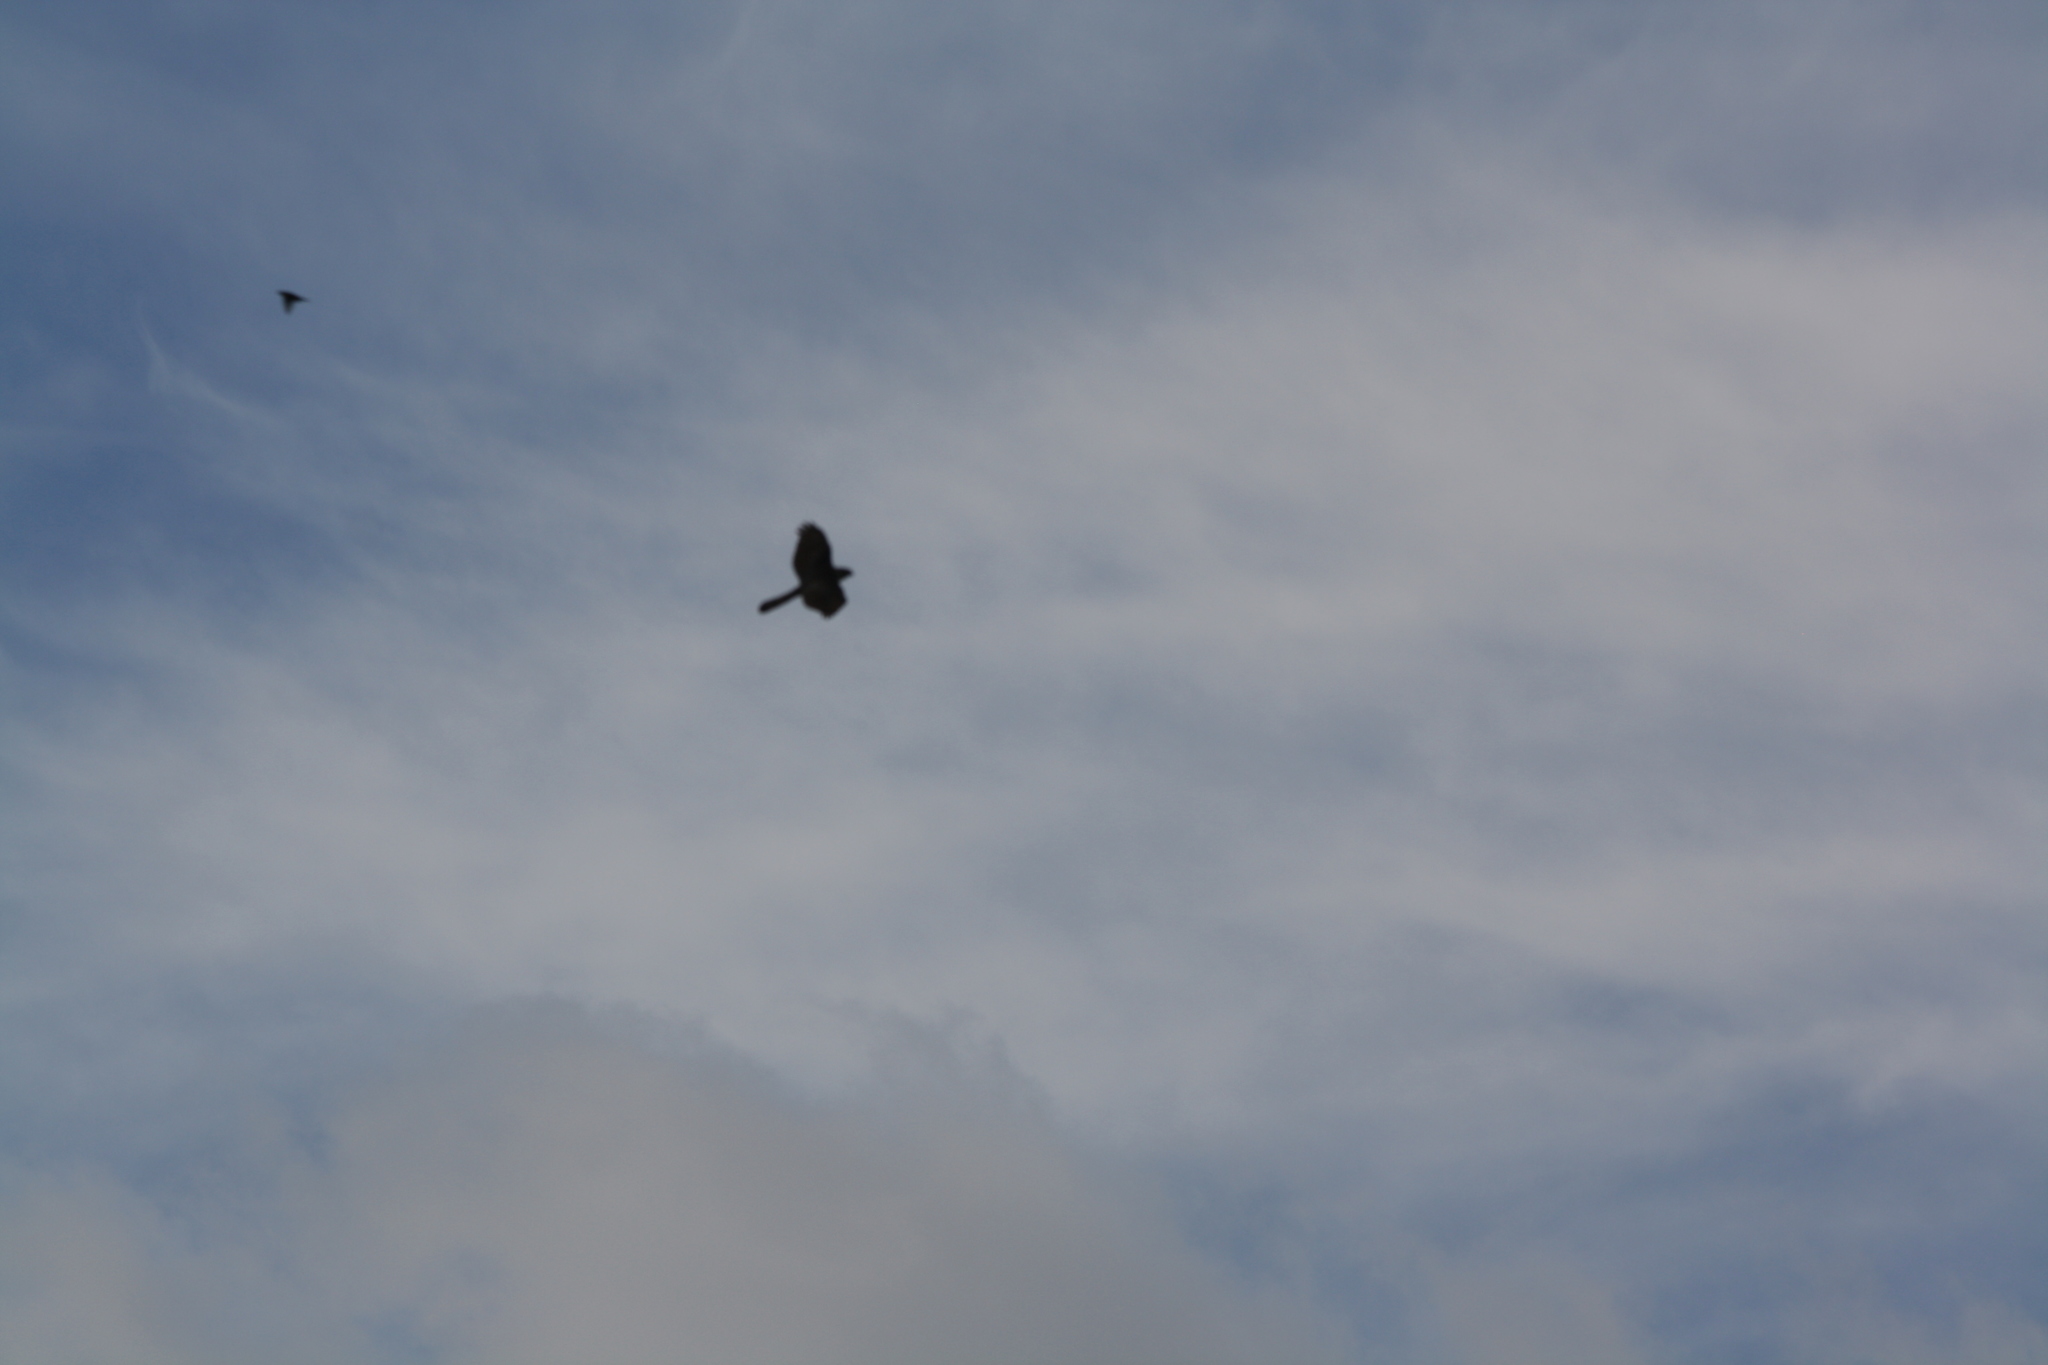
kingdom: Animalia
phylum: Chordata
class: Aves
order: Accipitriformes
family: Accipitridae
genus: Accipiter
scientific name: Accipiter cooperii
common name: Cooper's hawk
